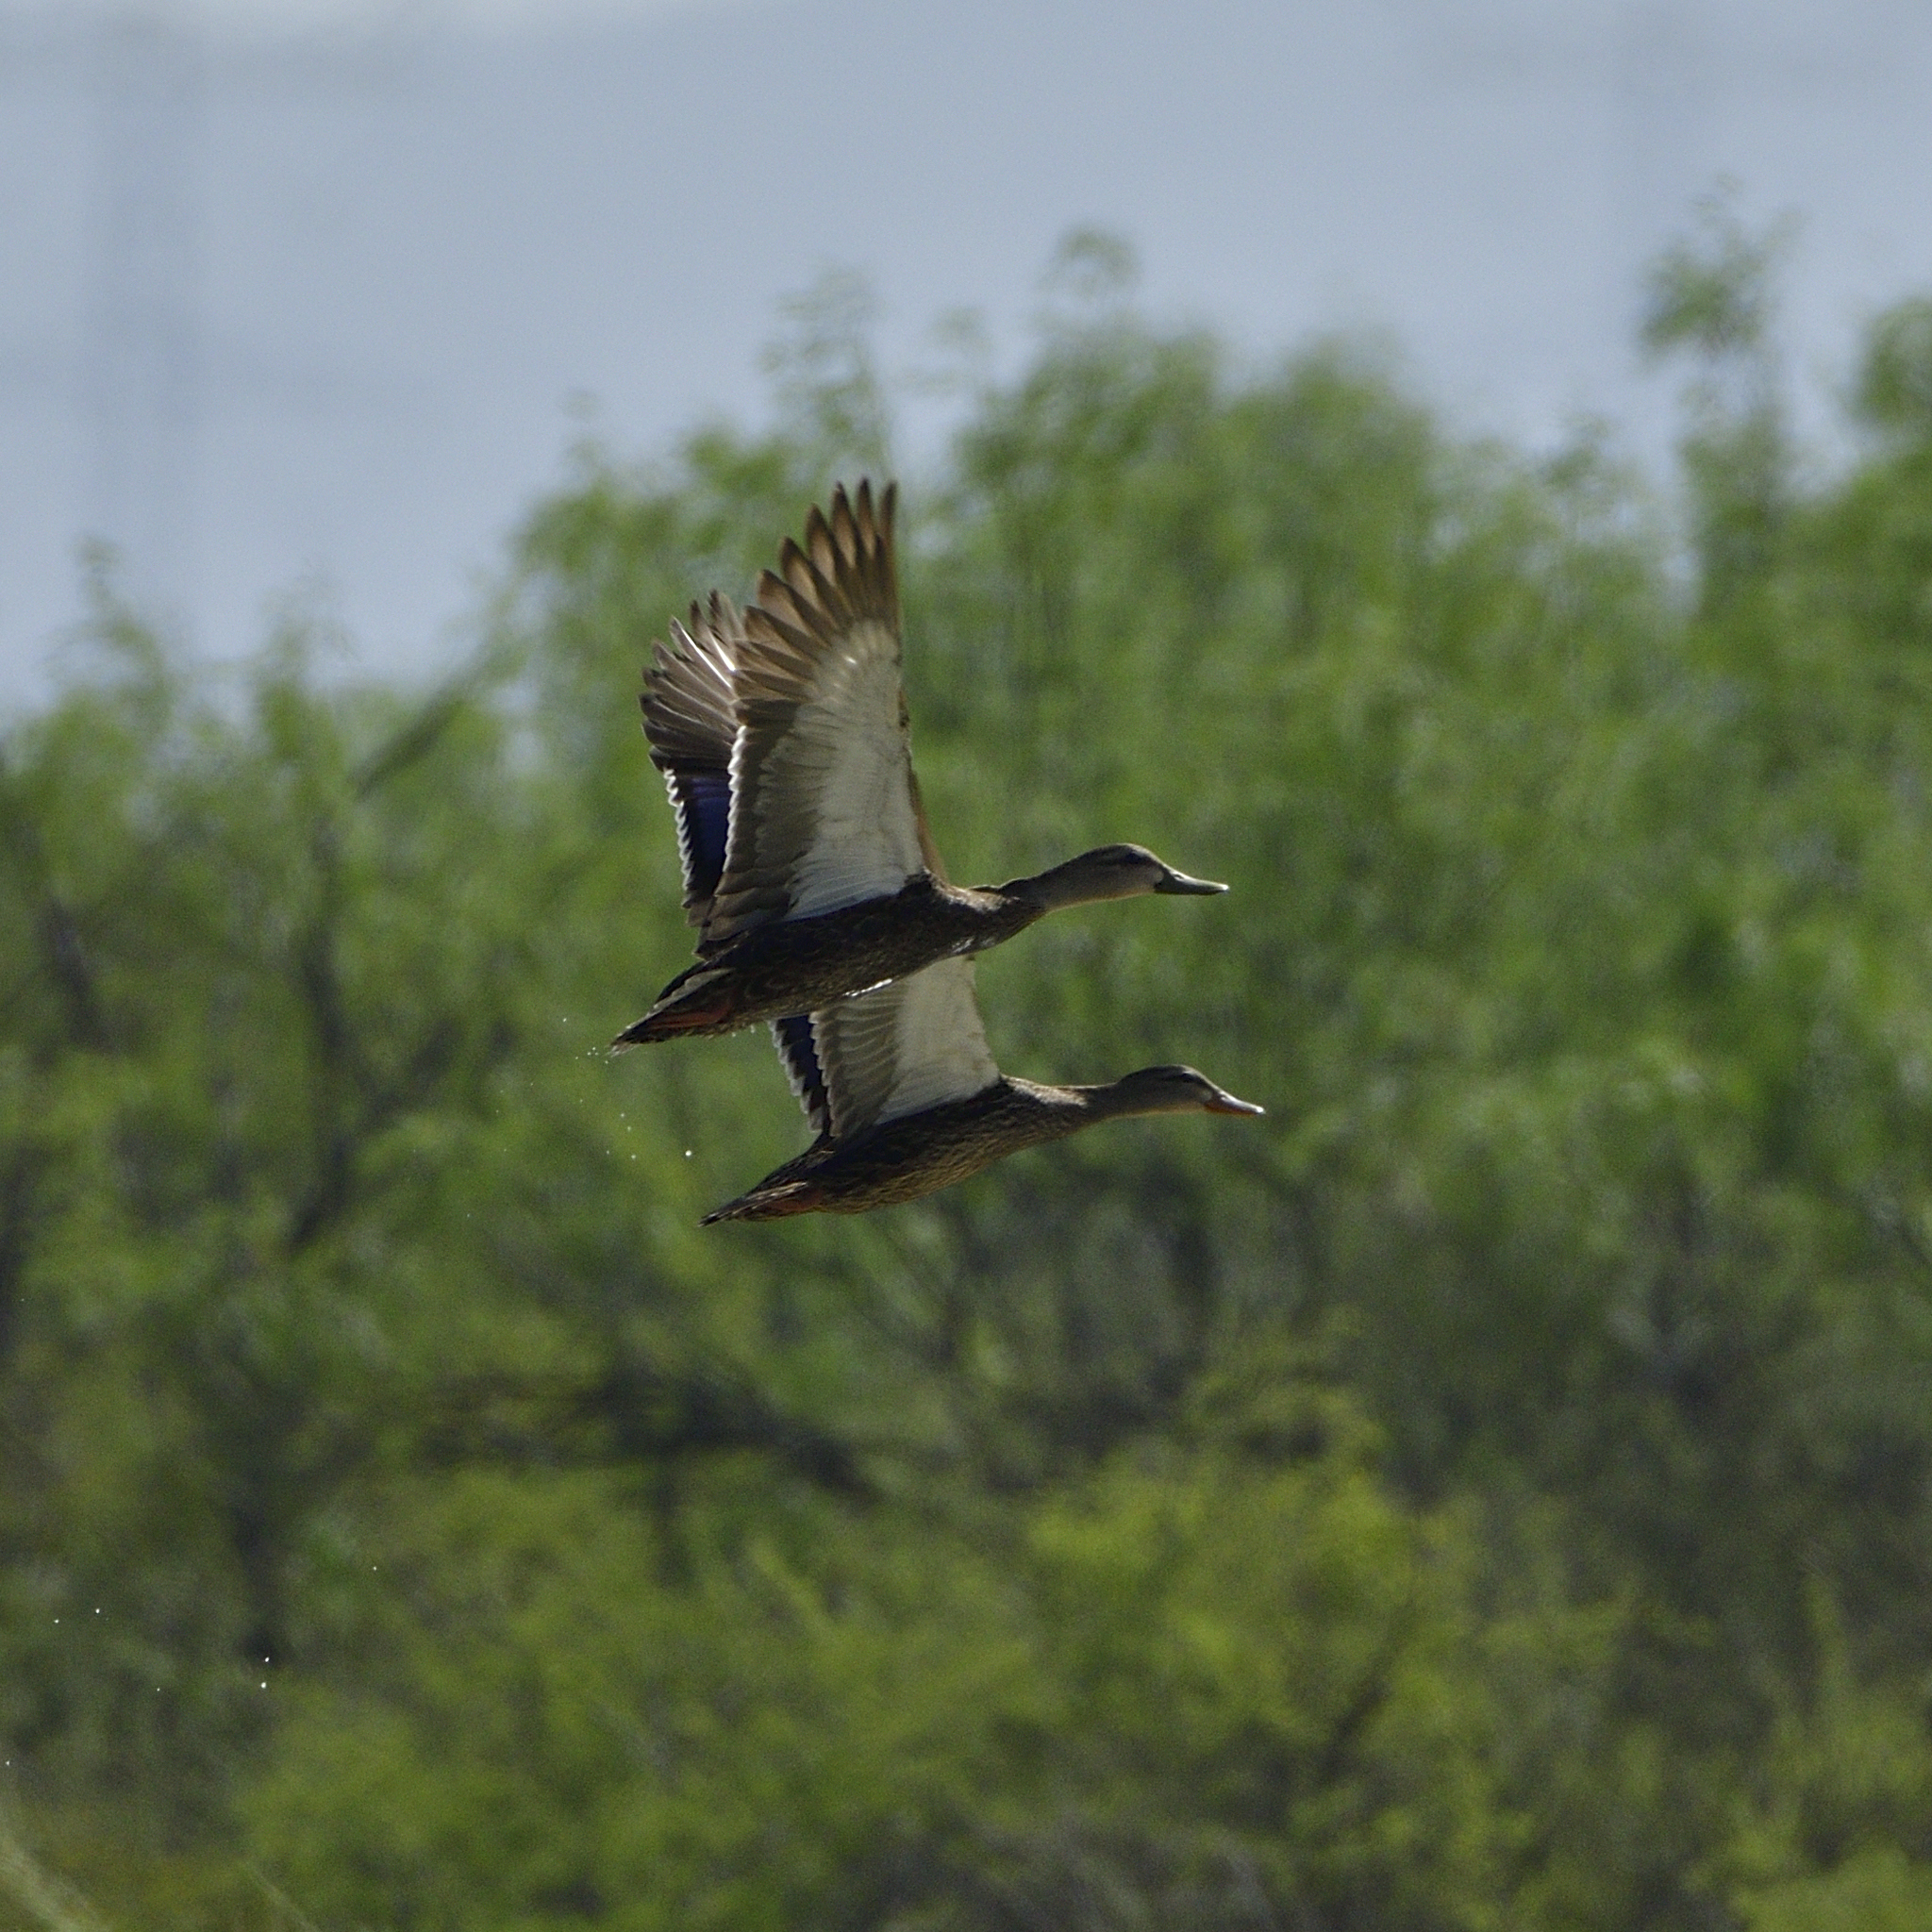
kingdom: Animalia
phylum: Chordata
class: Aves
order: Anseriformes
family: Anatidae
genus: Anas
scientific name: Anas diazi
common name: Mexican duck
